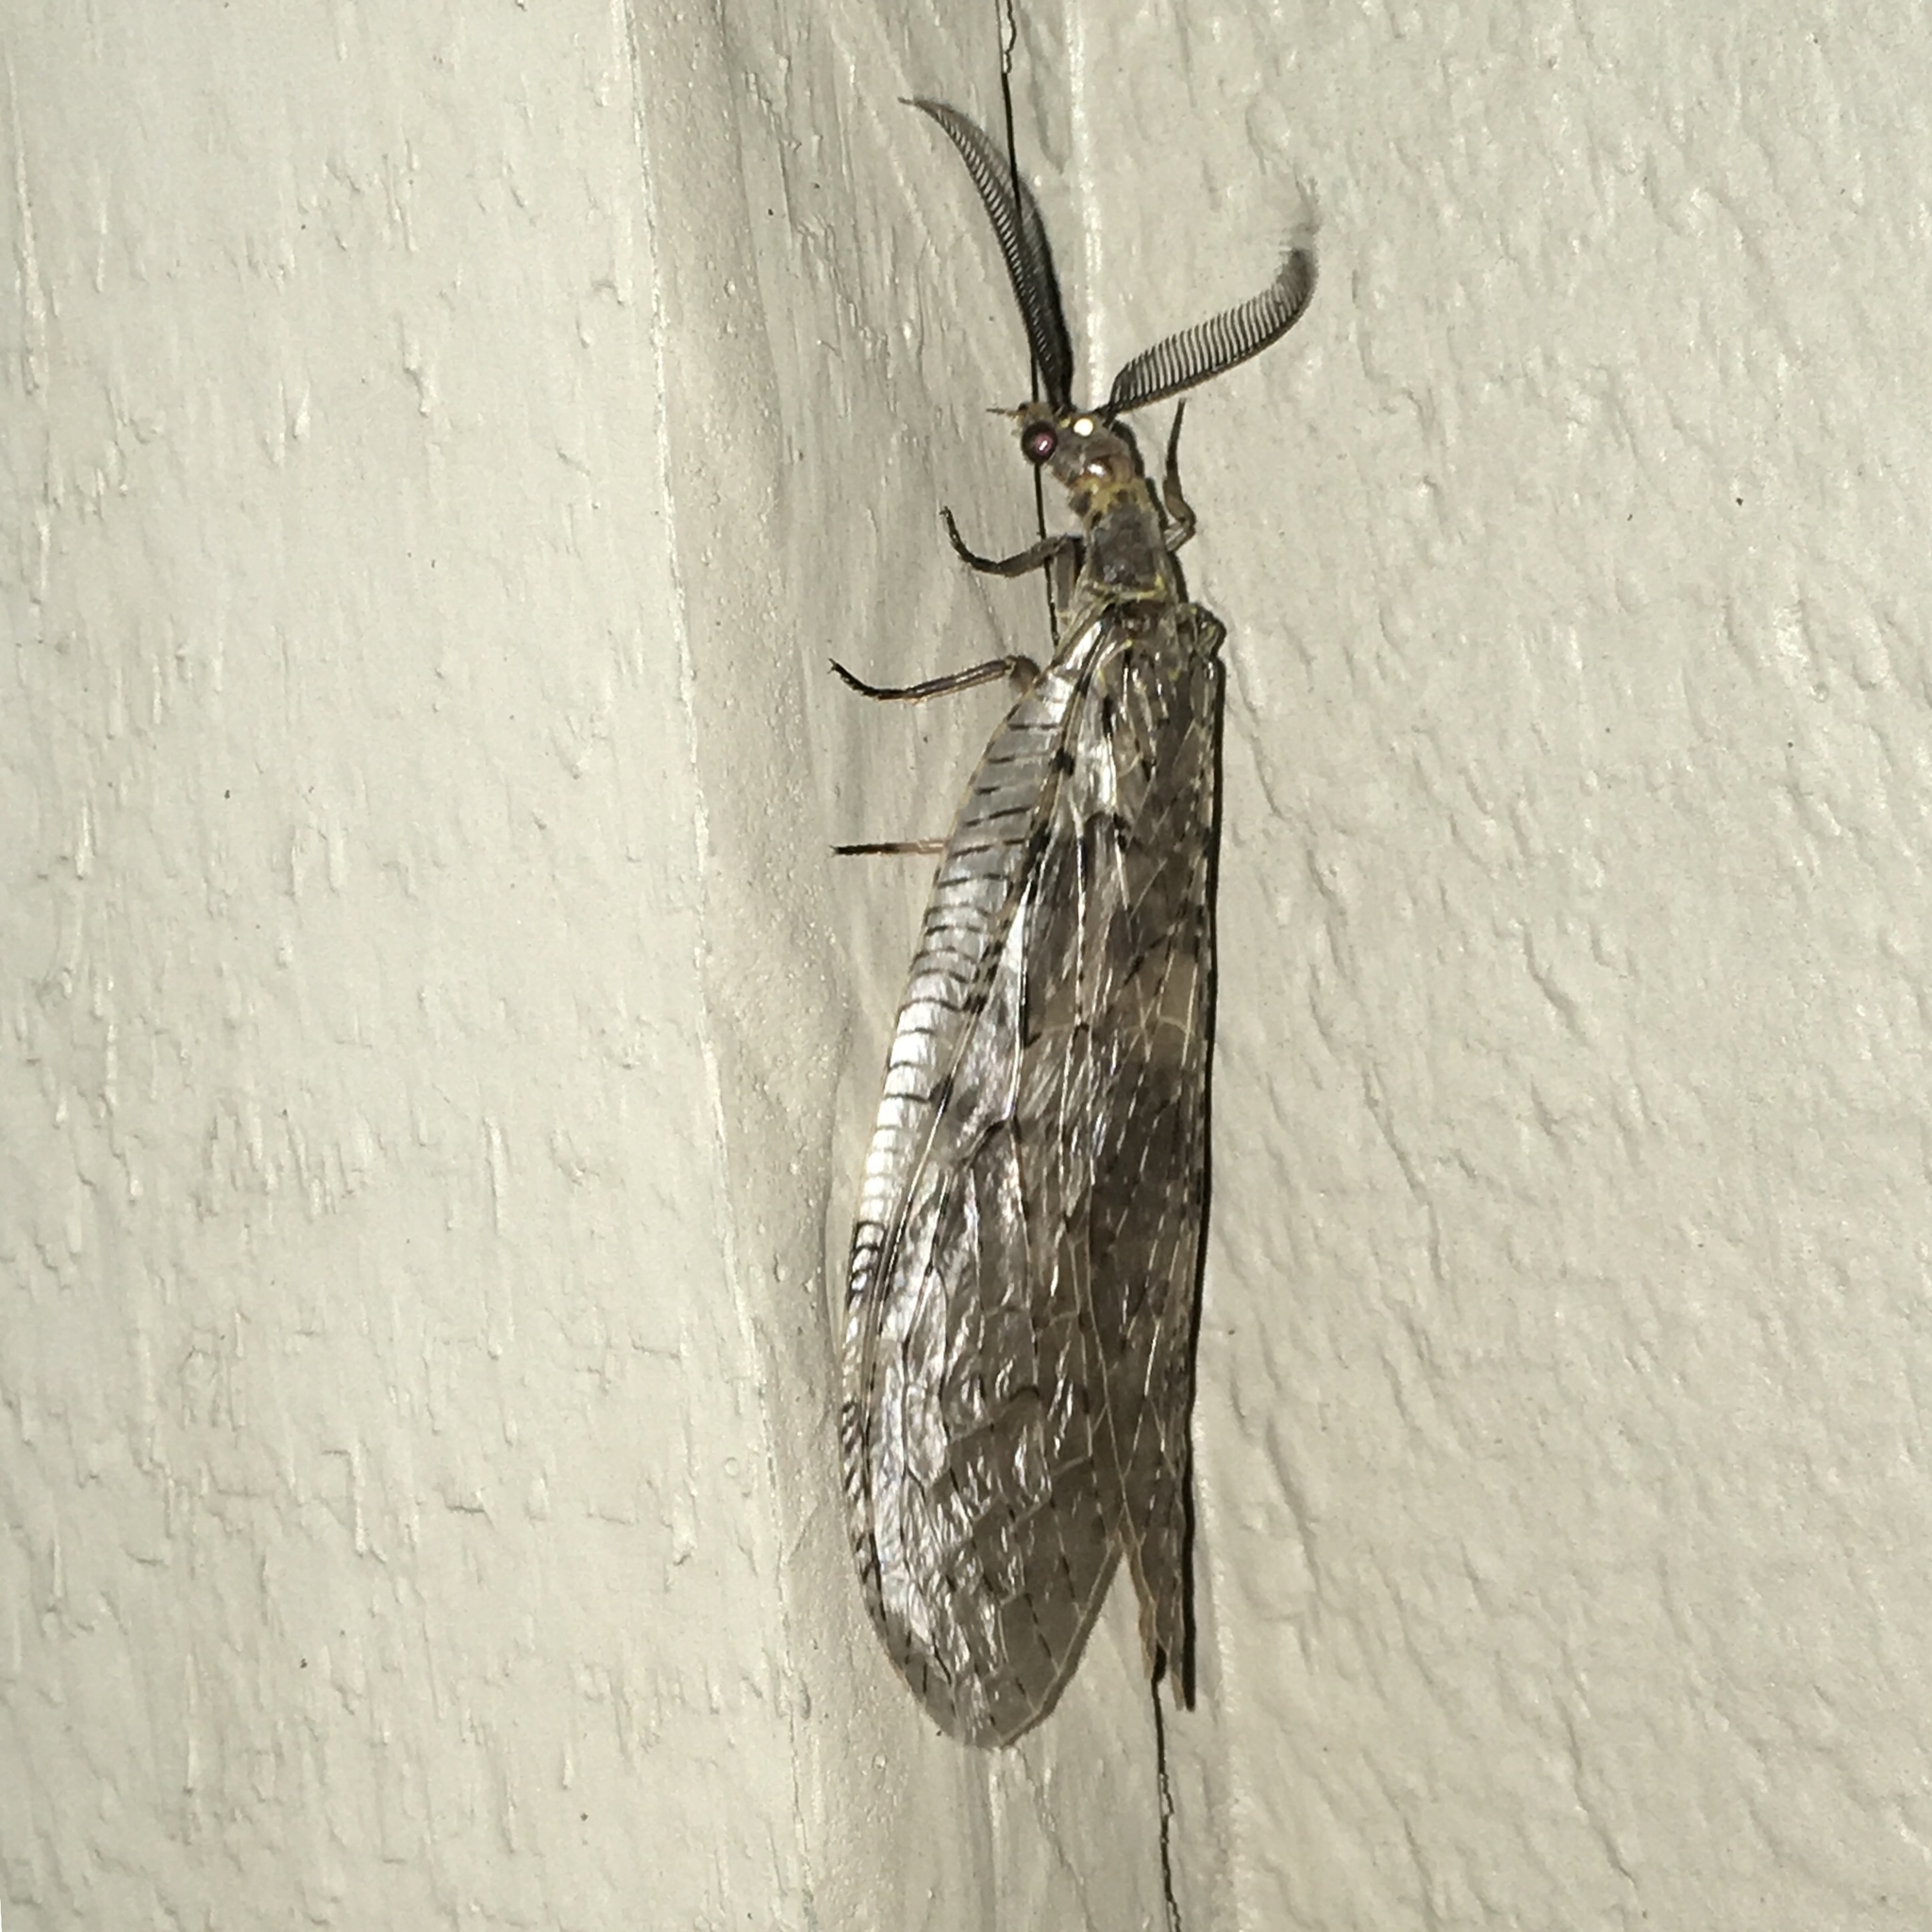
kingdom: Animalia
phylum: Arthropoda
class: Insecta
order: Megaloptera
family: Corydalidae
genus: Chauliodes
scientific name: Chauliodes pectinicornis
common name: Summer fishfly
